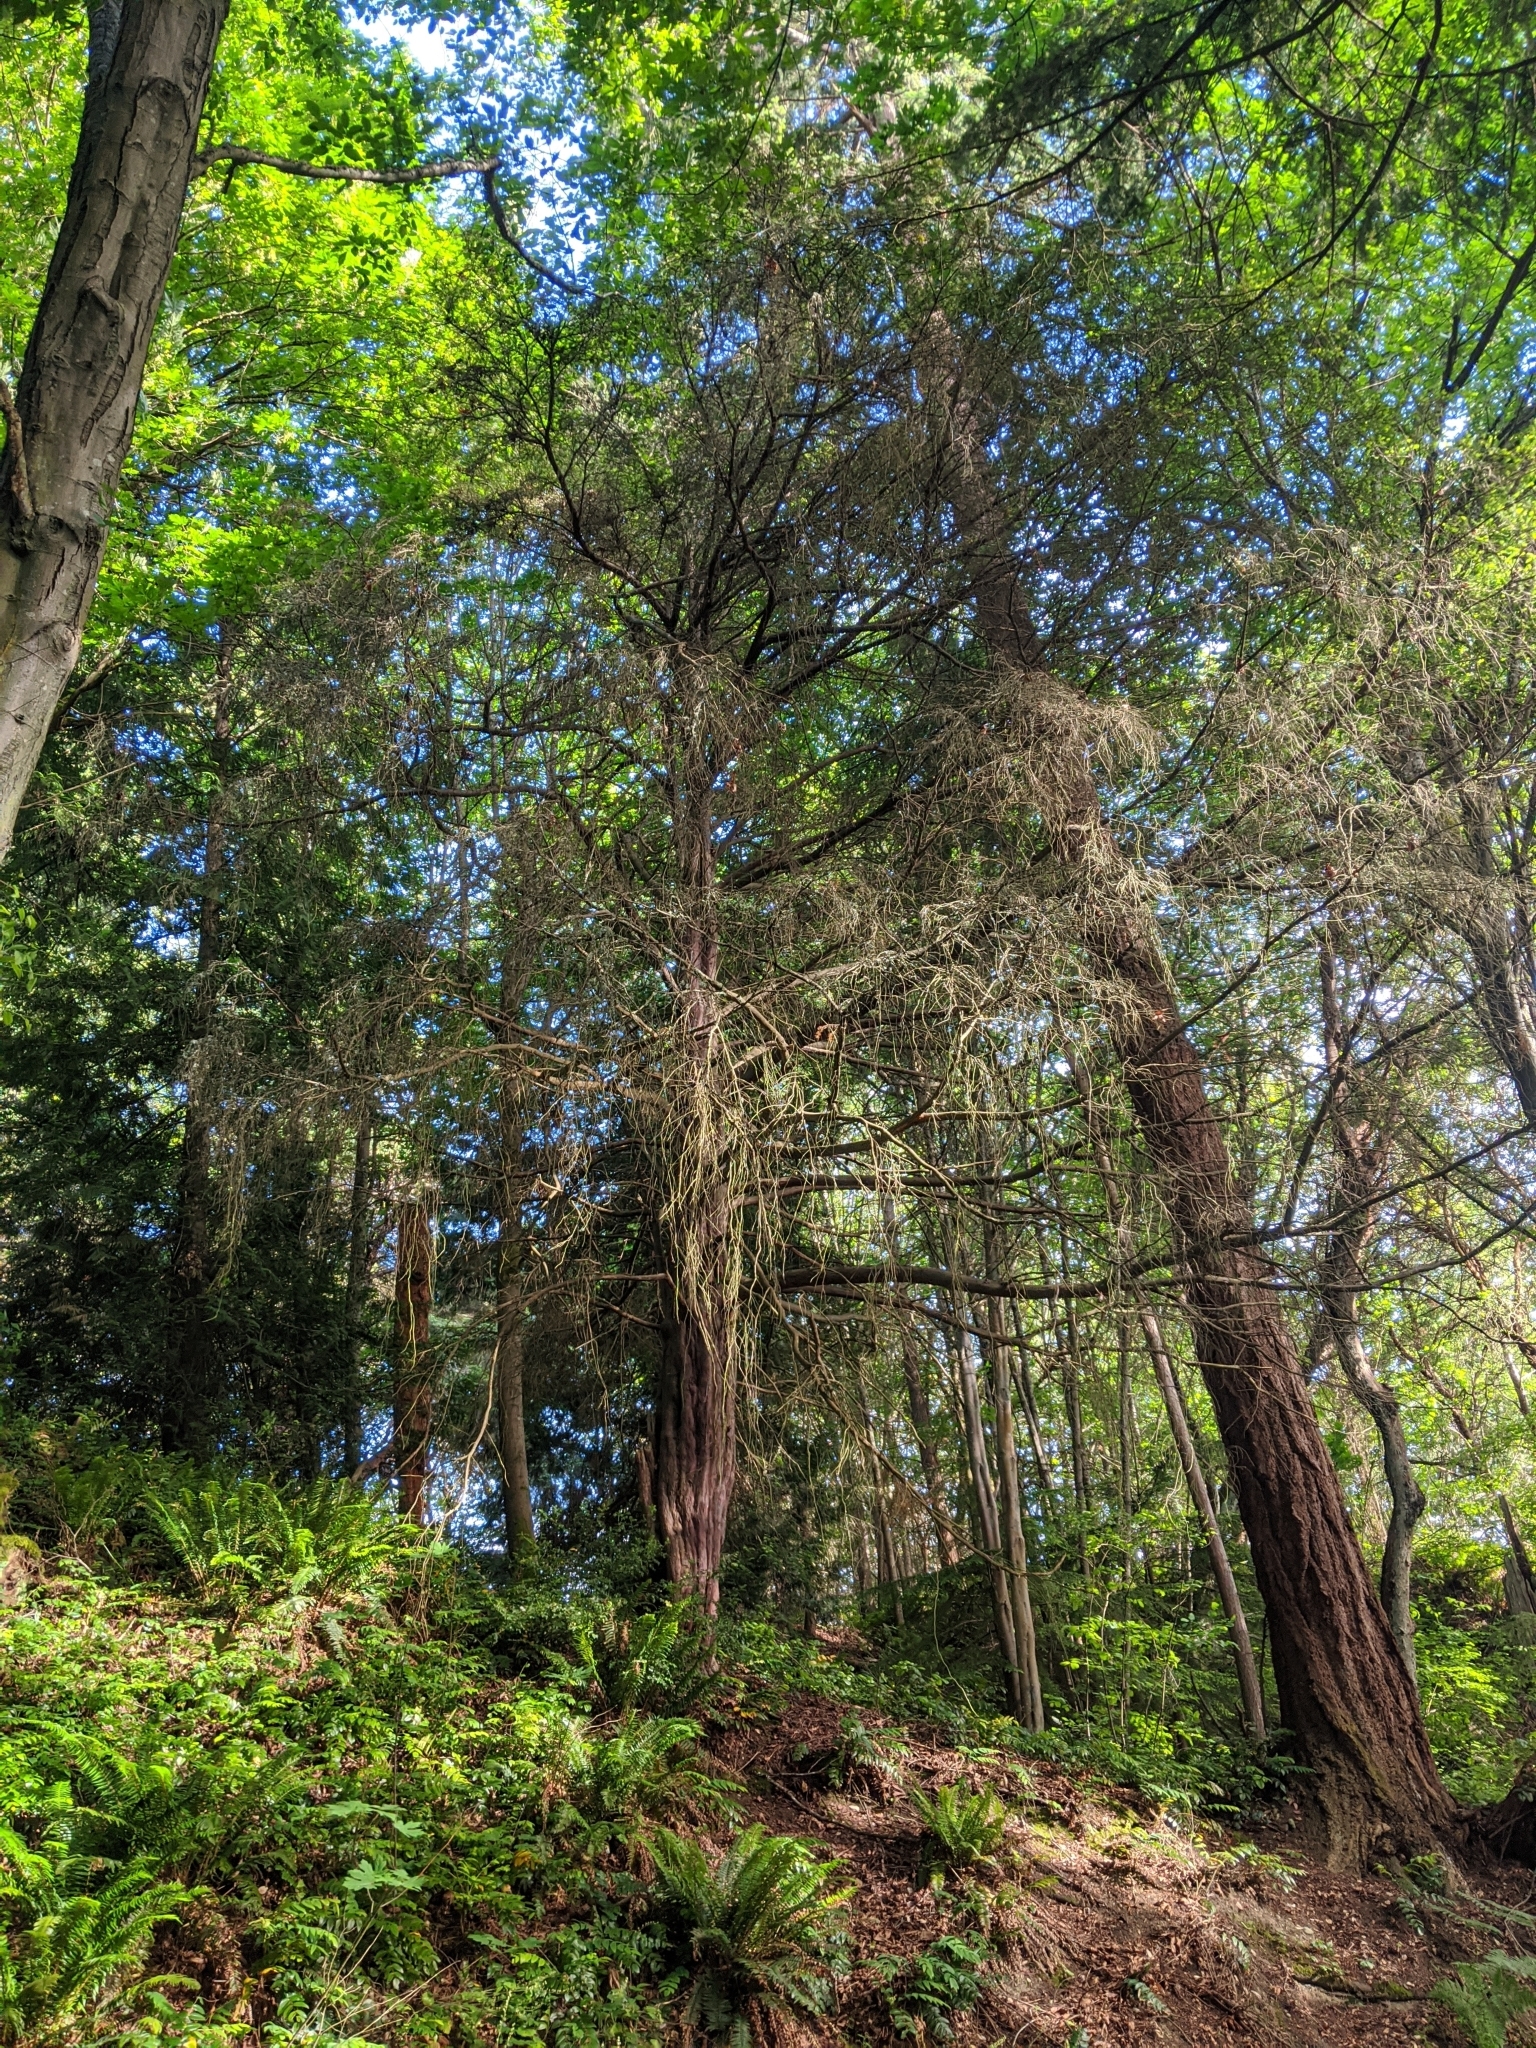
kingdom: Plantae
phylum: Tracheophyta
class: Pinopsida
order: Pinales
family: Taxaceae
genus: Taxus
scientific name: Taxus brevifolia
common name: Pacific yew
